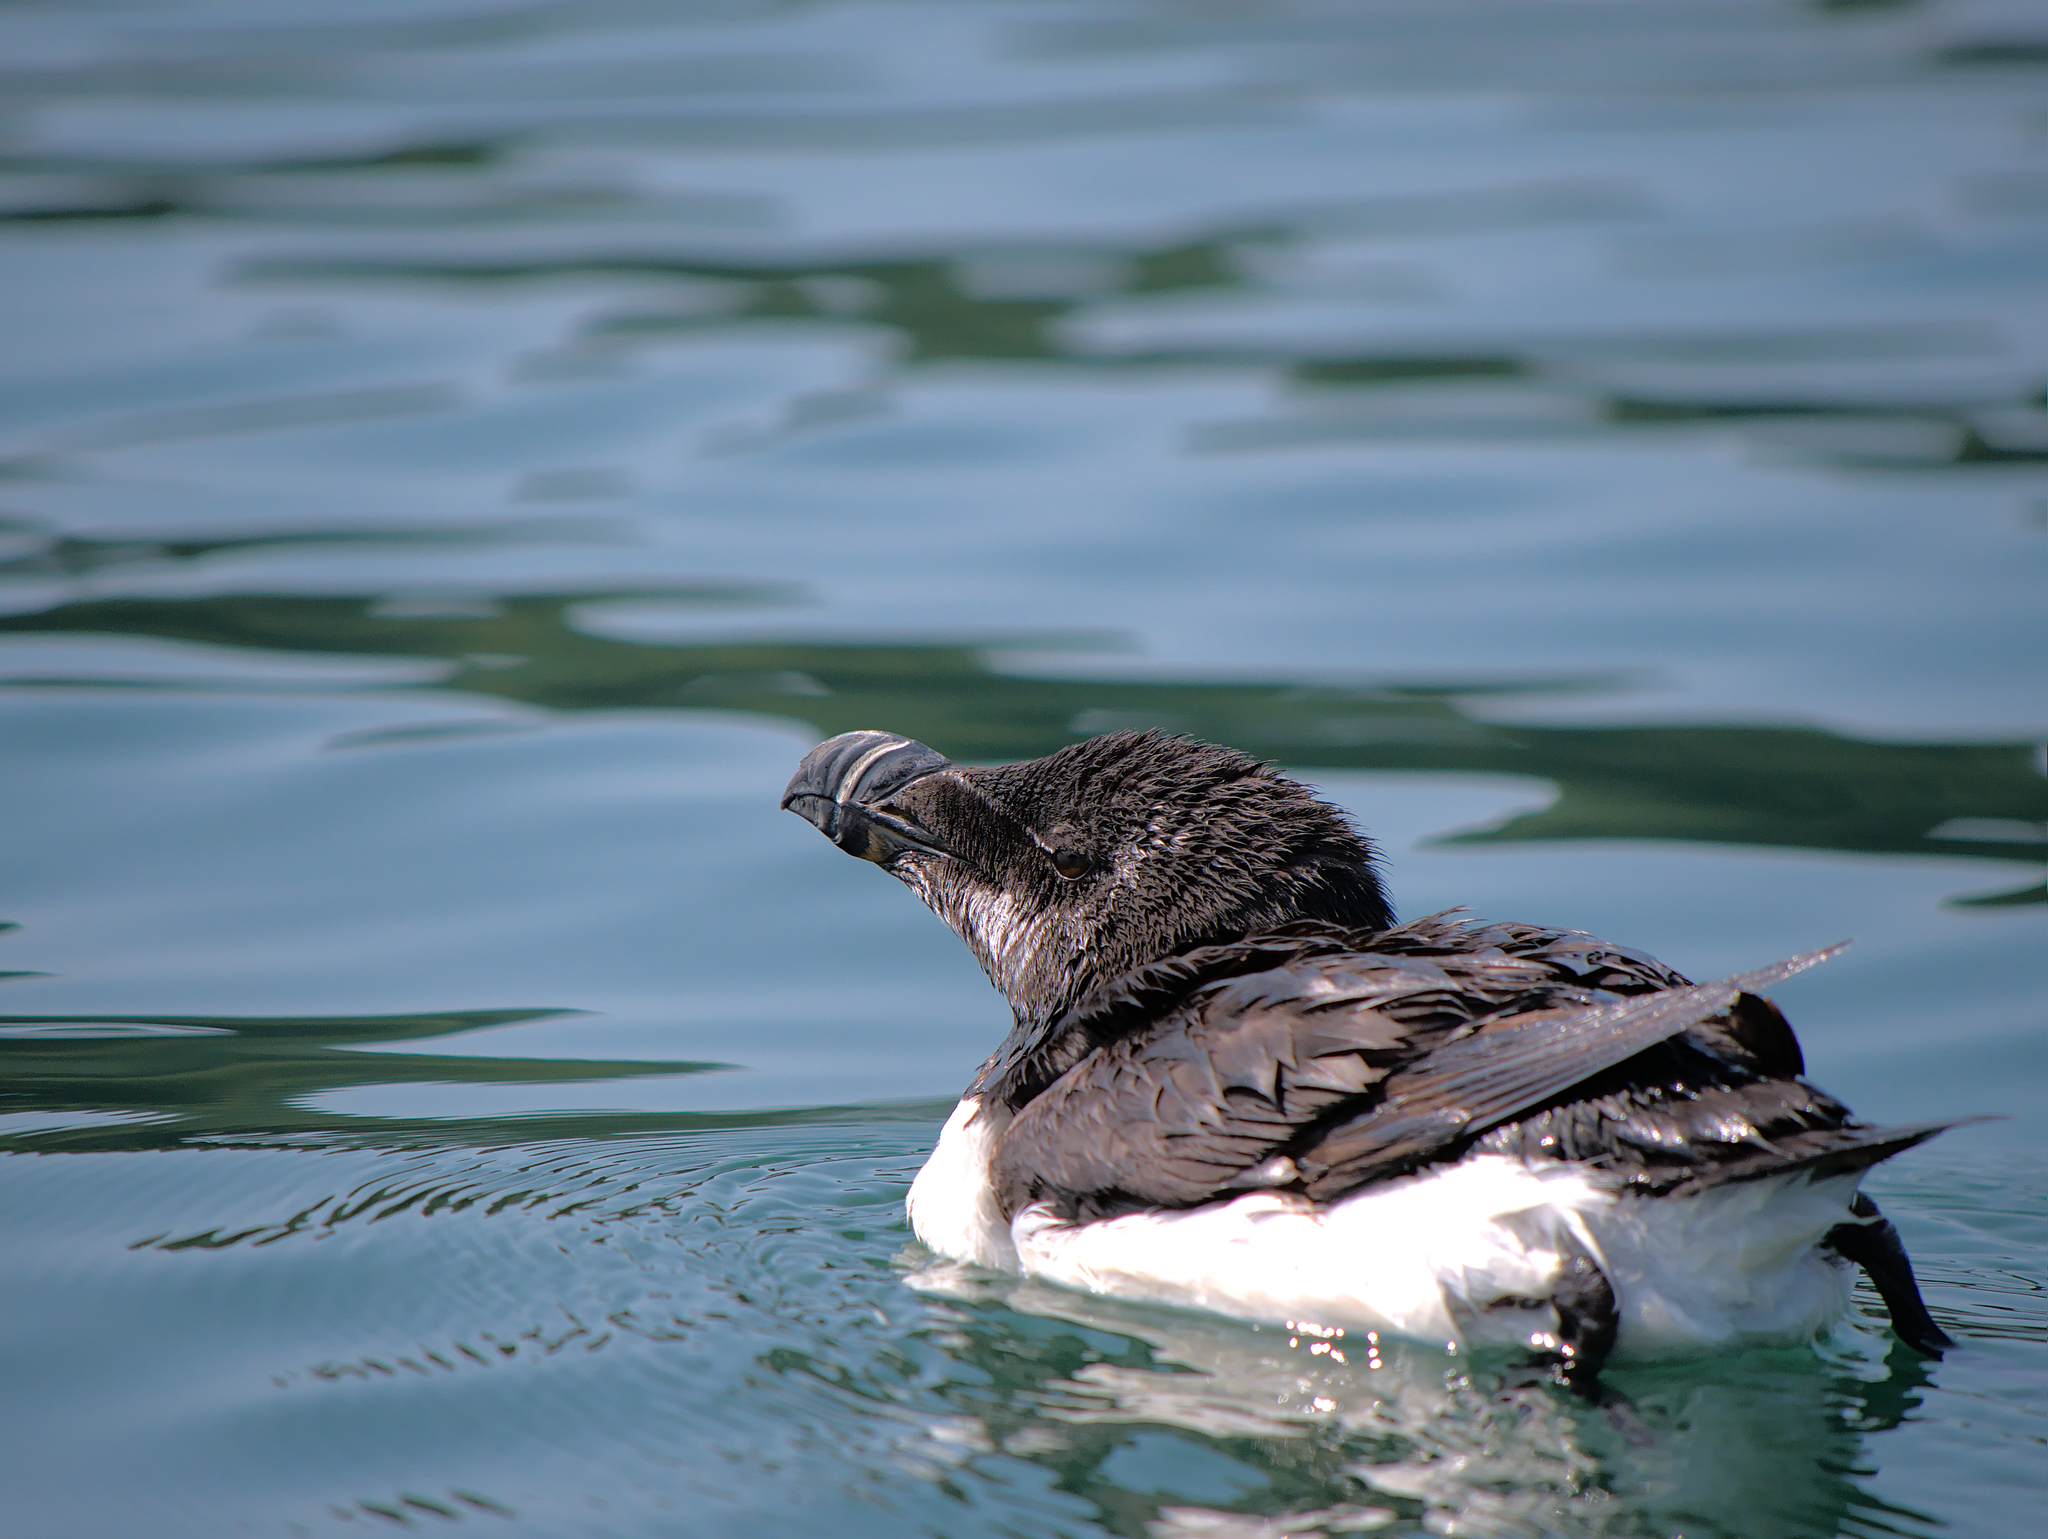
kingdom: Animalia
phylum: Chordata
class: Aves
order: Charadriiformes
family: Alcidae
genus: Alca
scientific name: Alca torda
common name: Razorbill
